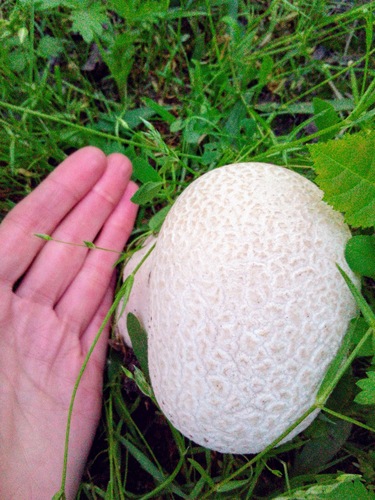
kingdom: Fungi
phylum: Basidiomycota
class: Agaricomycetes
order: Agaricales
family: Lycoperdaceae
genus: Bovistella
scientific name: Bovistella utriformis
